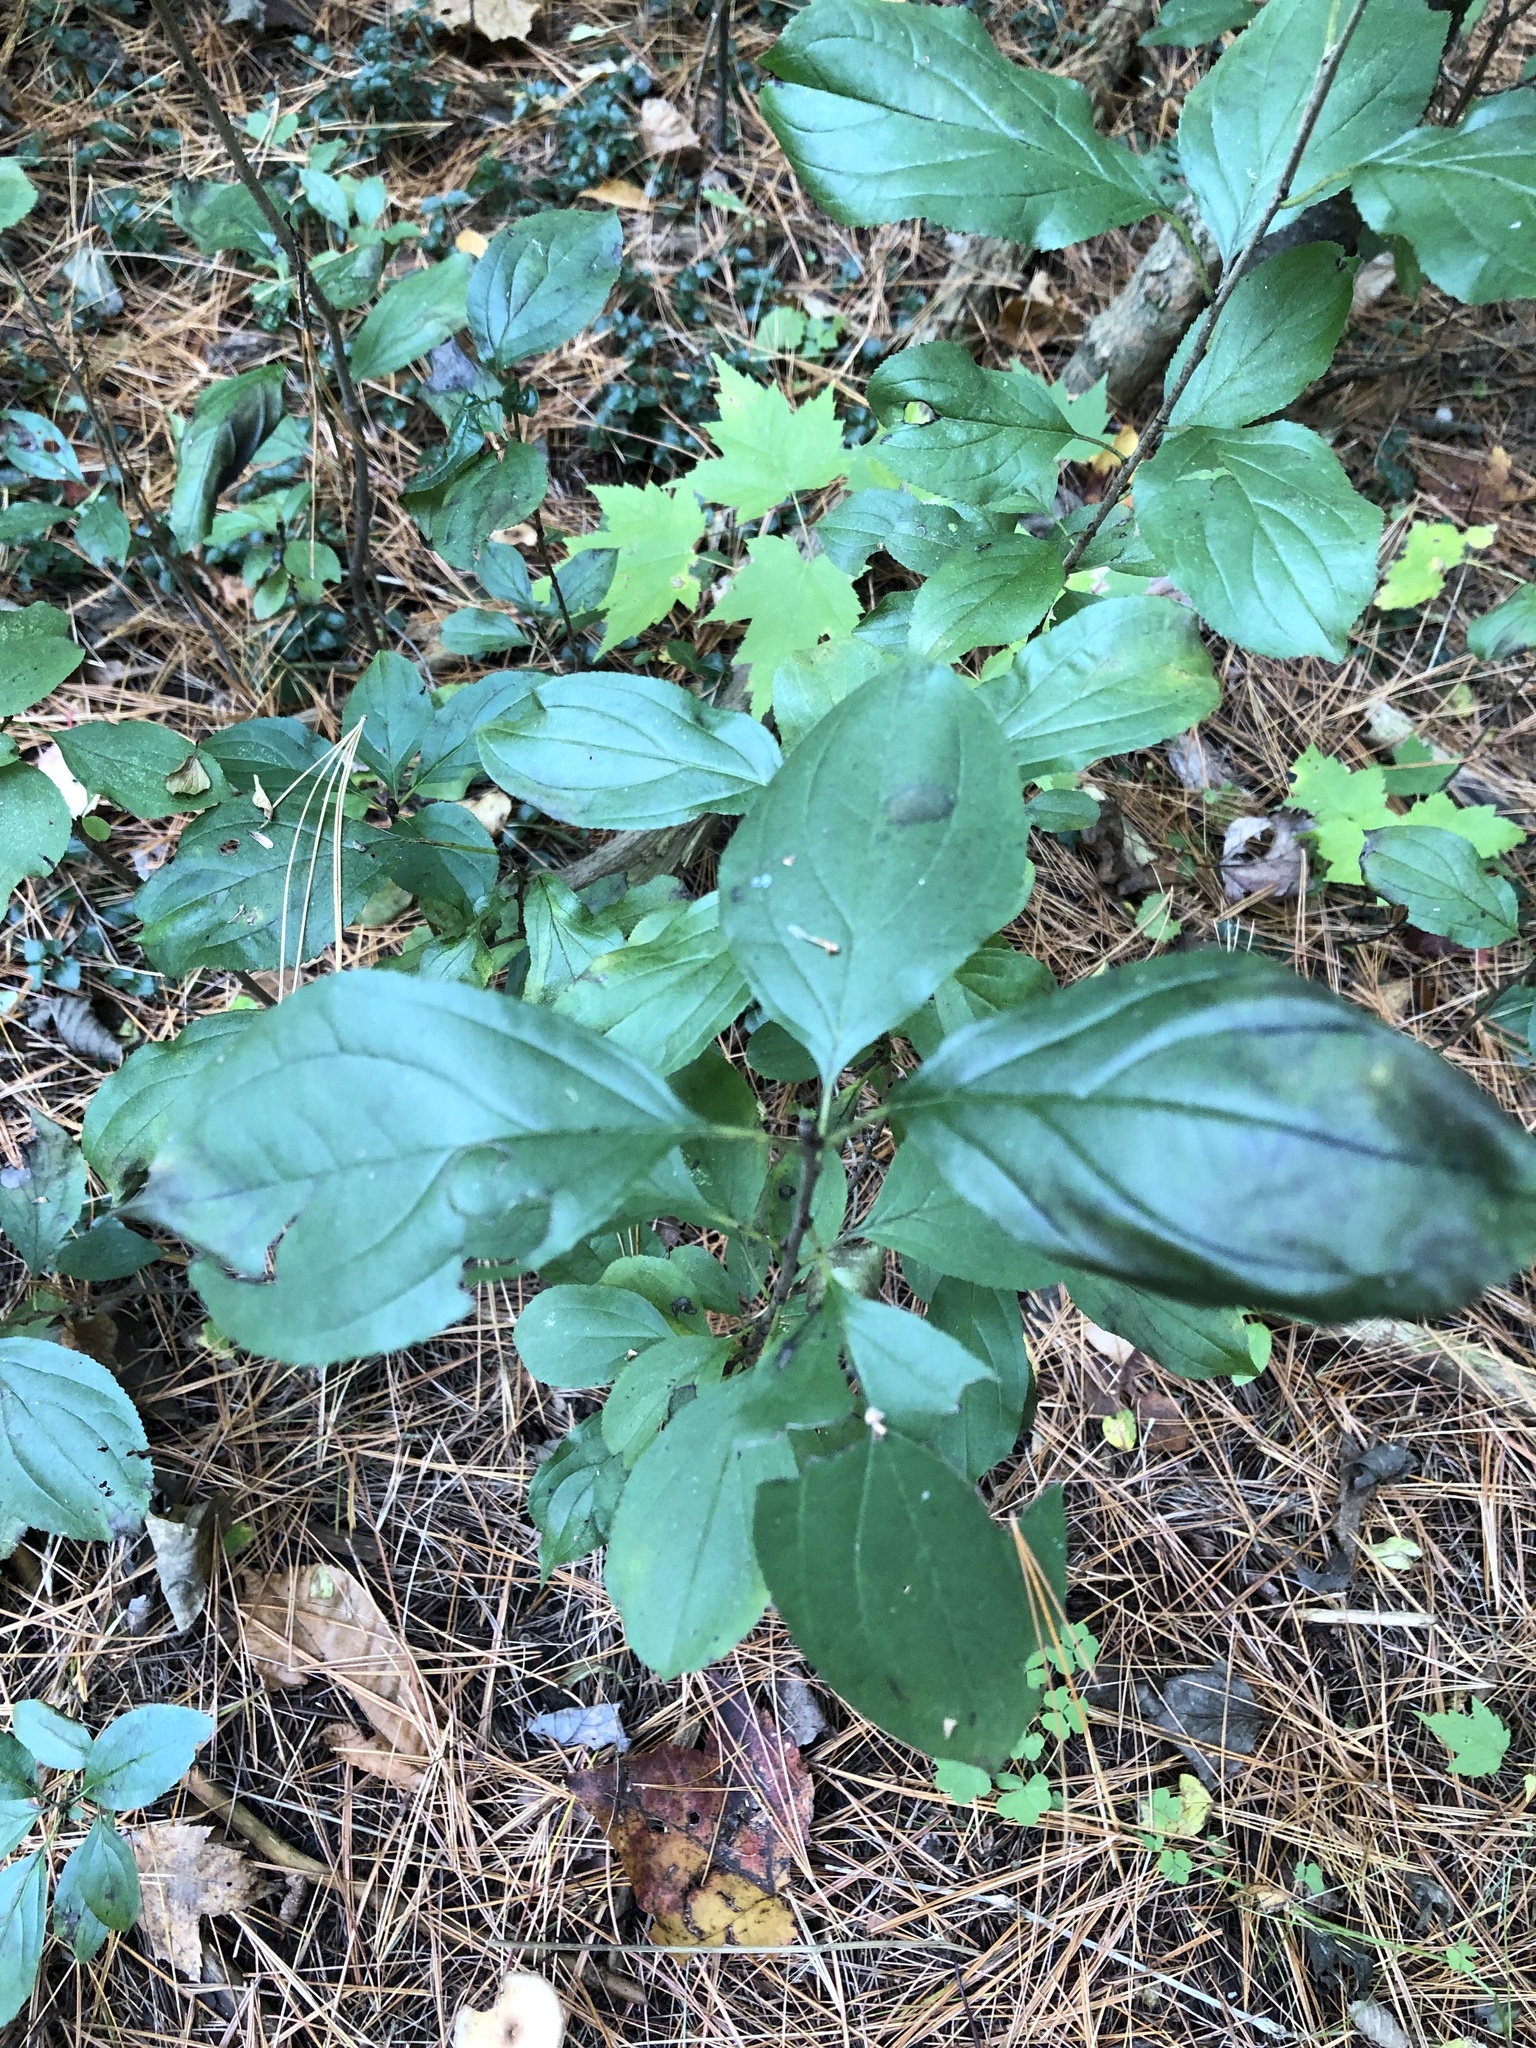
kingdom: Plantae
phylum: Tracheophyta
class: Magnoliopsida
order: Rosales
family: Rhamnaceae
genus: Rhamnus
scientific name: Rhamnus cathartica
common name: Common buckthorn
